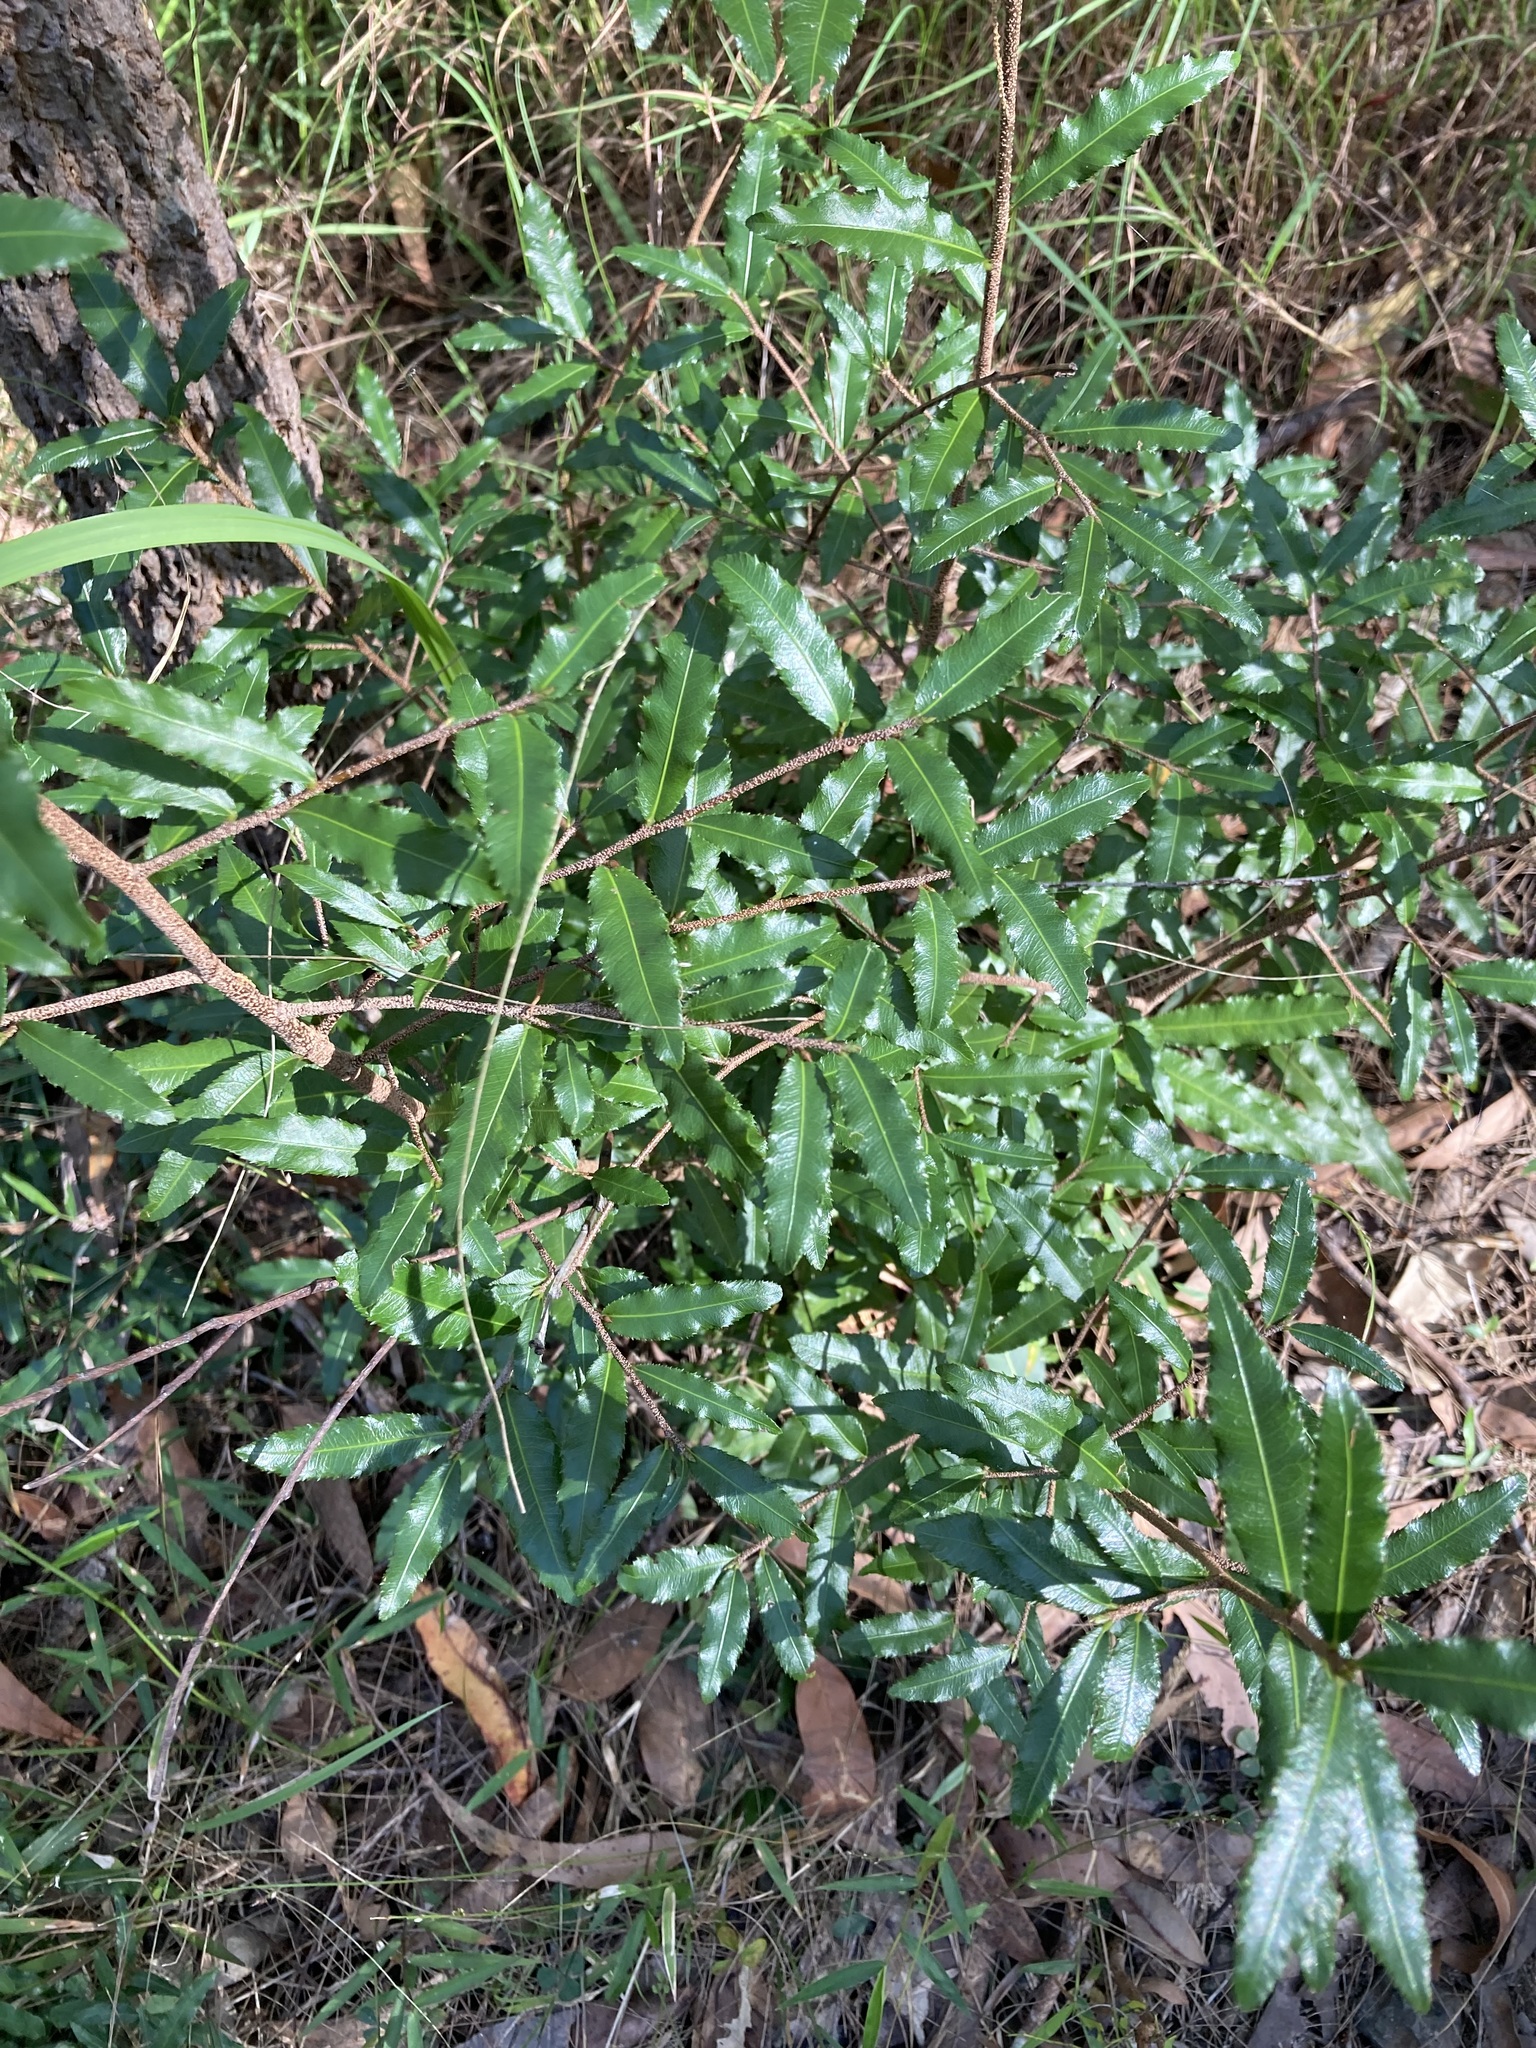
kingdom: Plantae
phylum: Tracheophyta
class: Magnoliopsida
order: Malpighiales
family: Ochnaceae
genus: Ochna
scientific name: Ochna serrulata
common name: Mickey mouse plant
